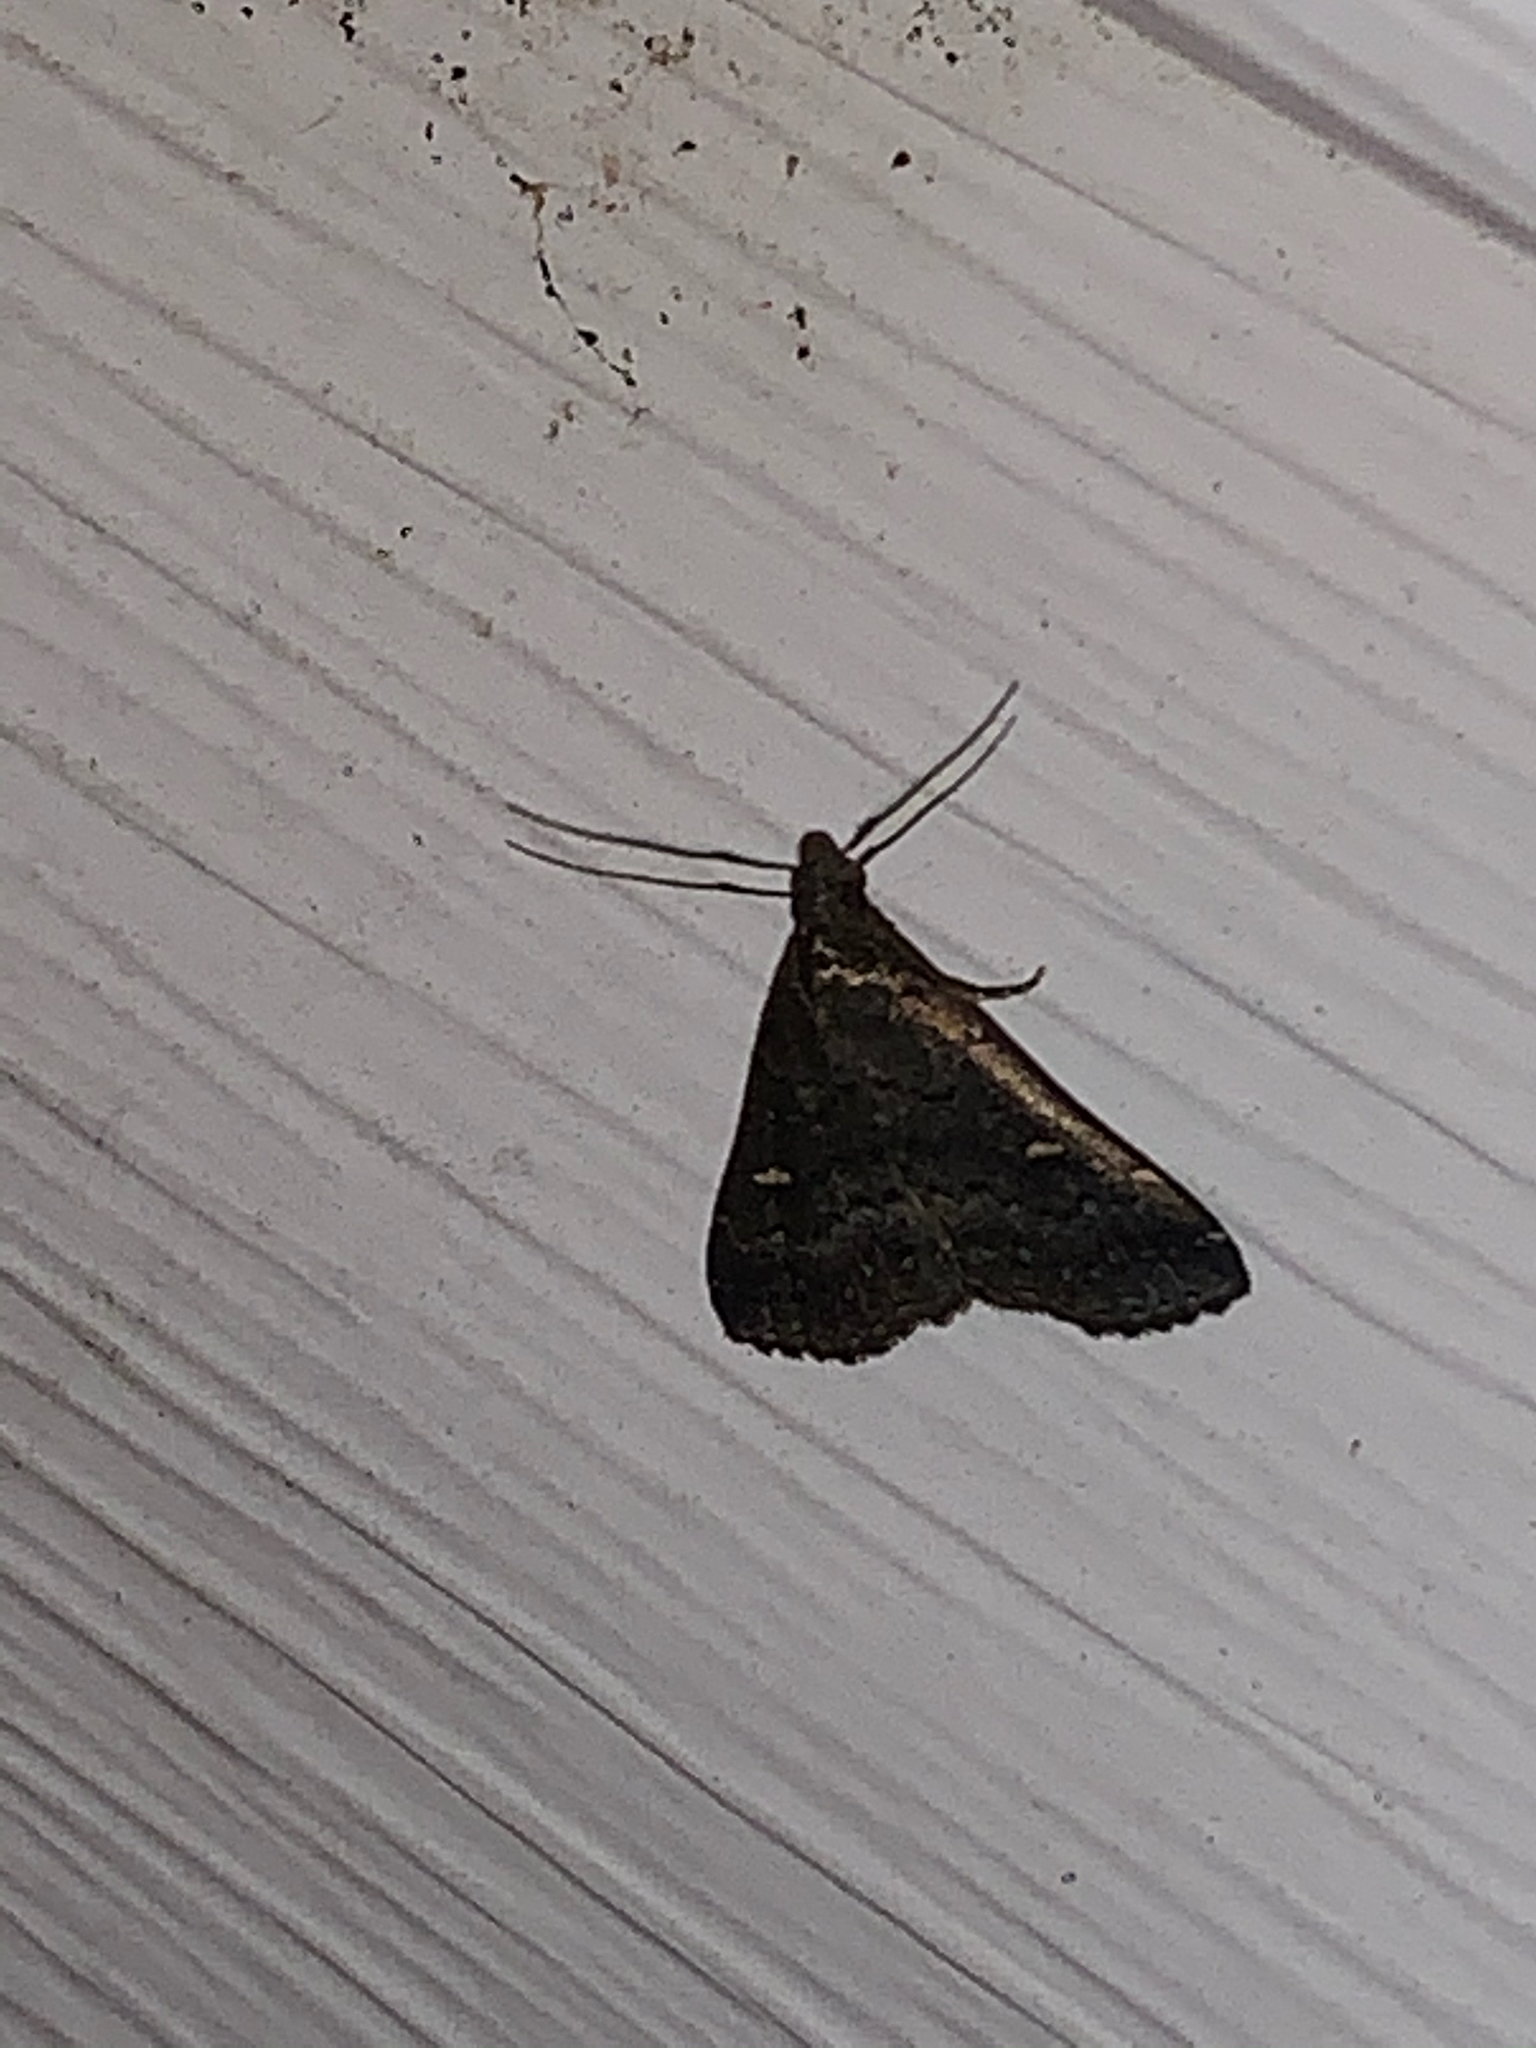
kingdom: Animalia
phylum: Arthropoda
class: Insecta
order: Lepidoptera
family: Erebidae
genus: Tetanolita
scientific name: Tetanolita mynesalis
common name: Smoky tetanolita moth
